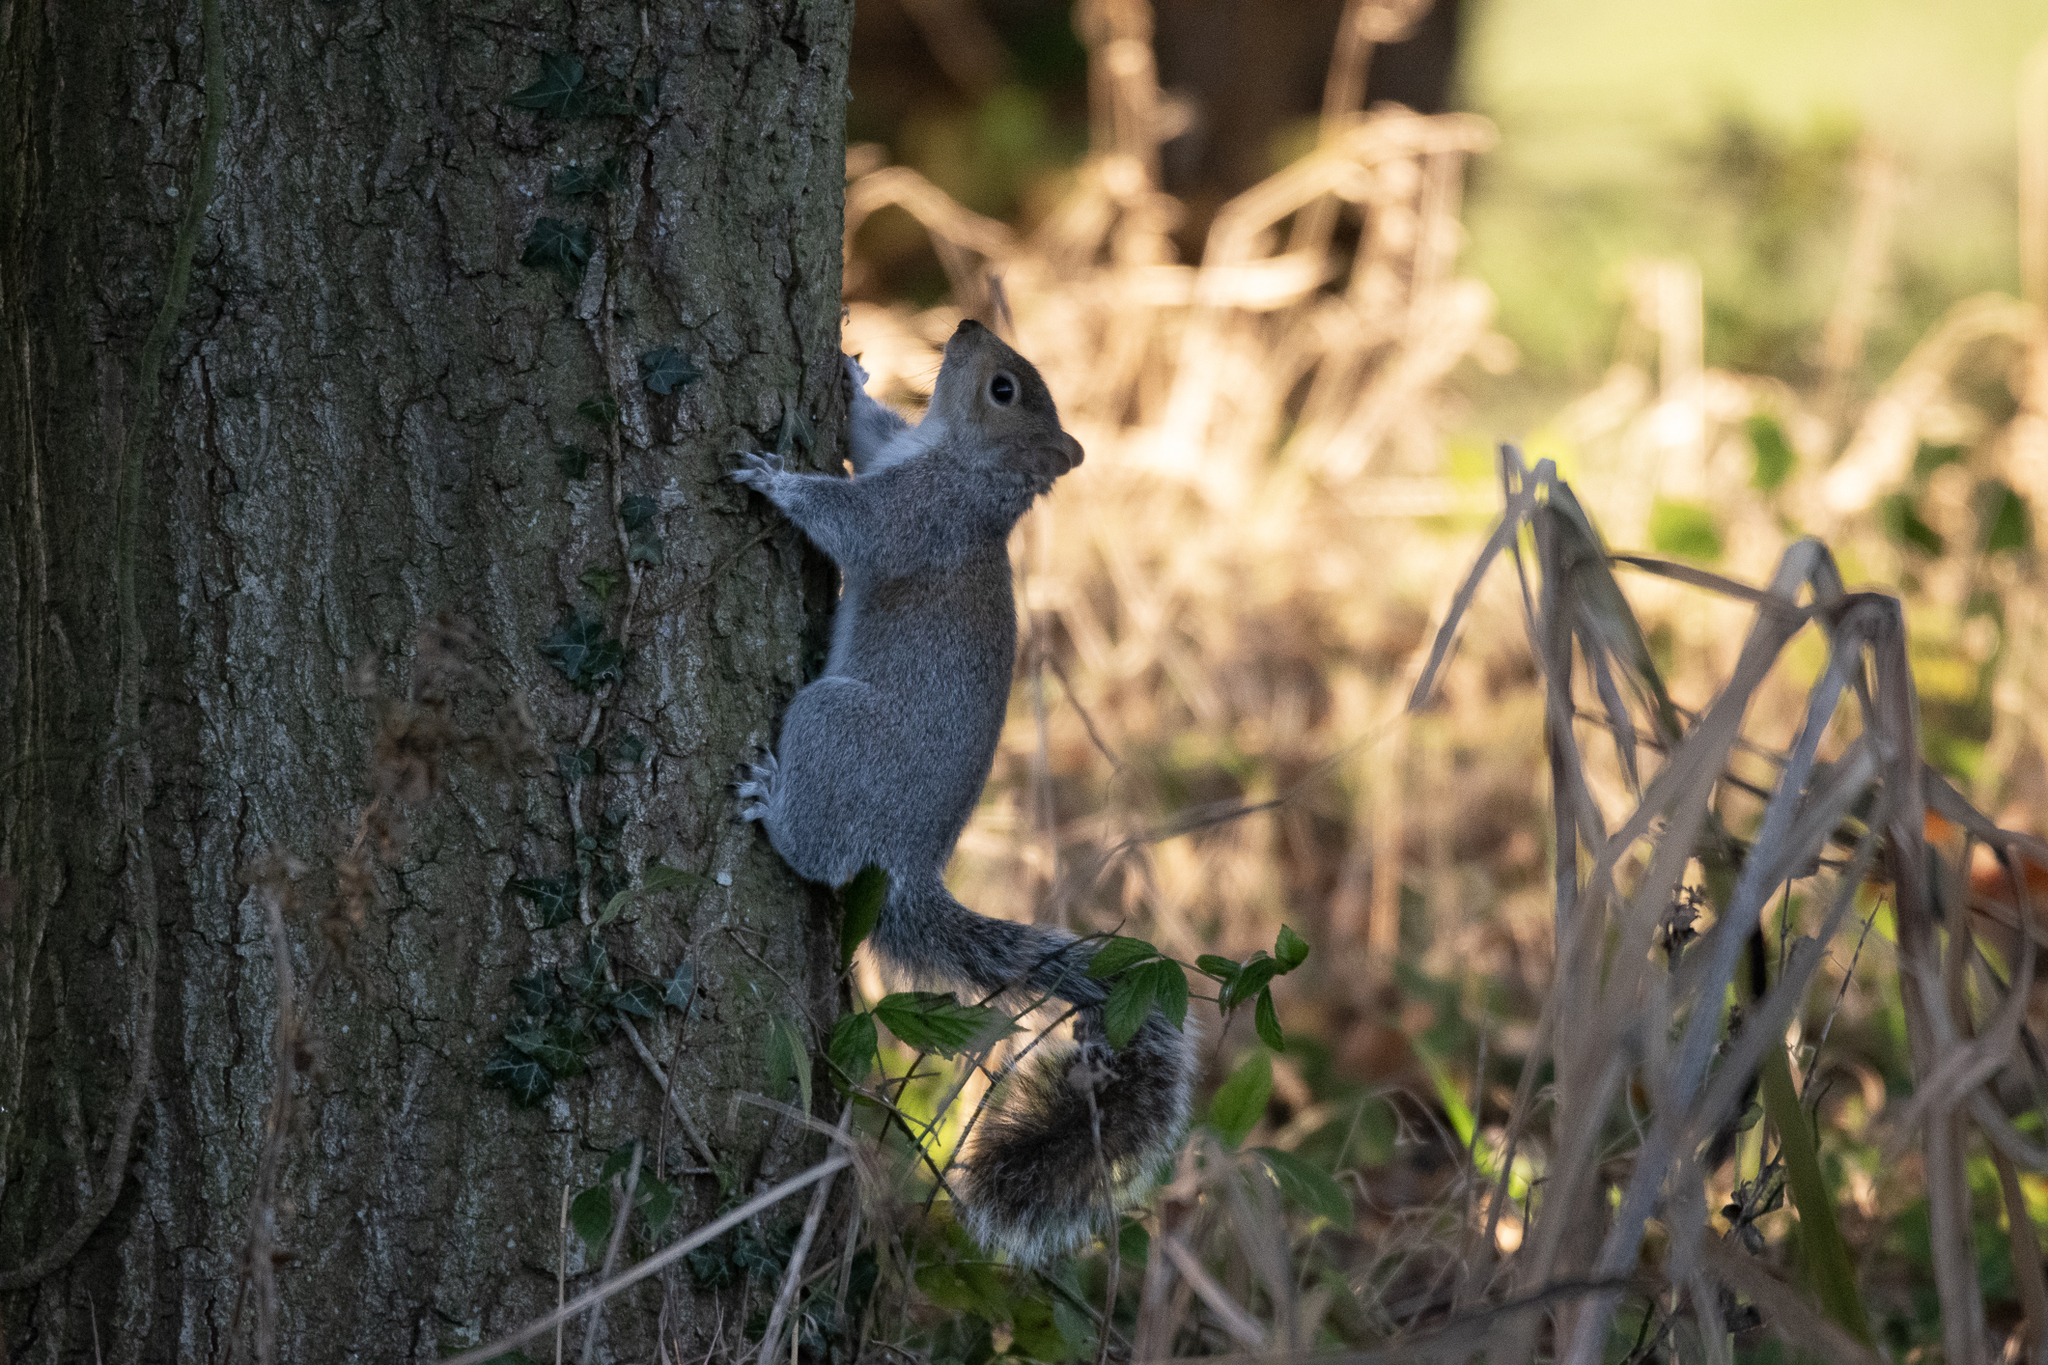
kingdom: Animalia
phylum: Chordata
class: Mammalia
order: Rodentia
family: Sciuridae
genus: Sciurus
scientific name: Sciurus carolinensis
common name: Eastern gray squirrel
